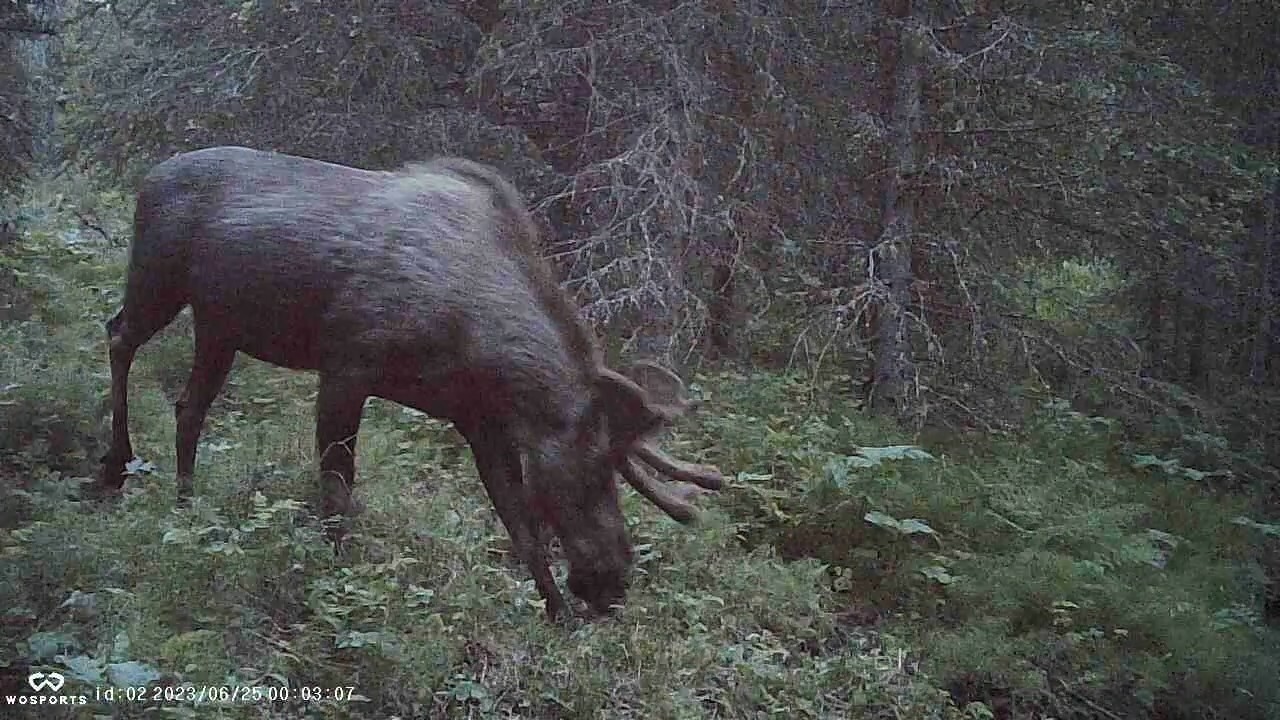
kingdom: Animalia
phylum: Chordata
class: Mammalia
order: Artiodactyla
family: Cervidae
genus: Alces
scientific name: Alces alces
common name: Moose
